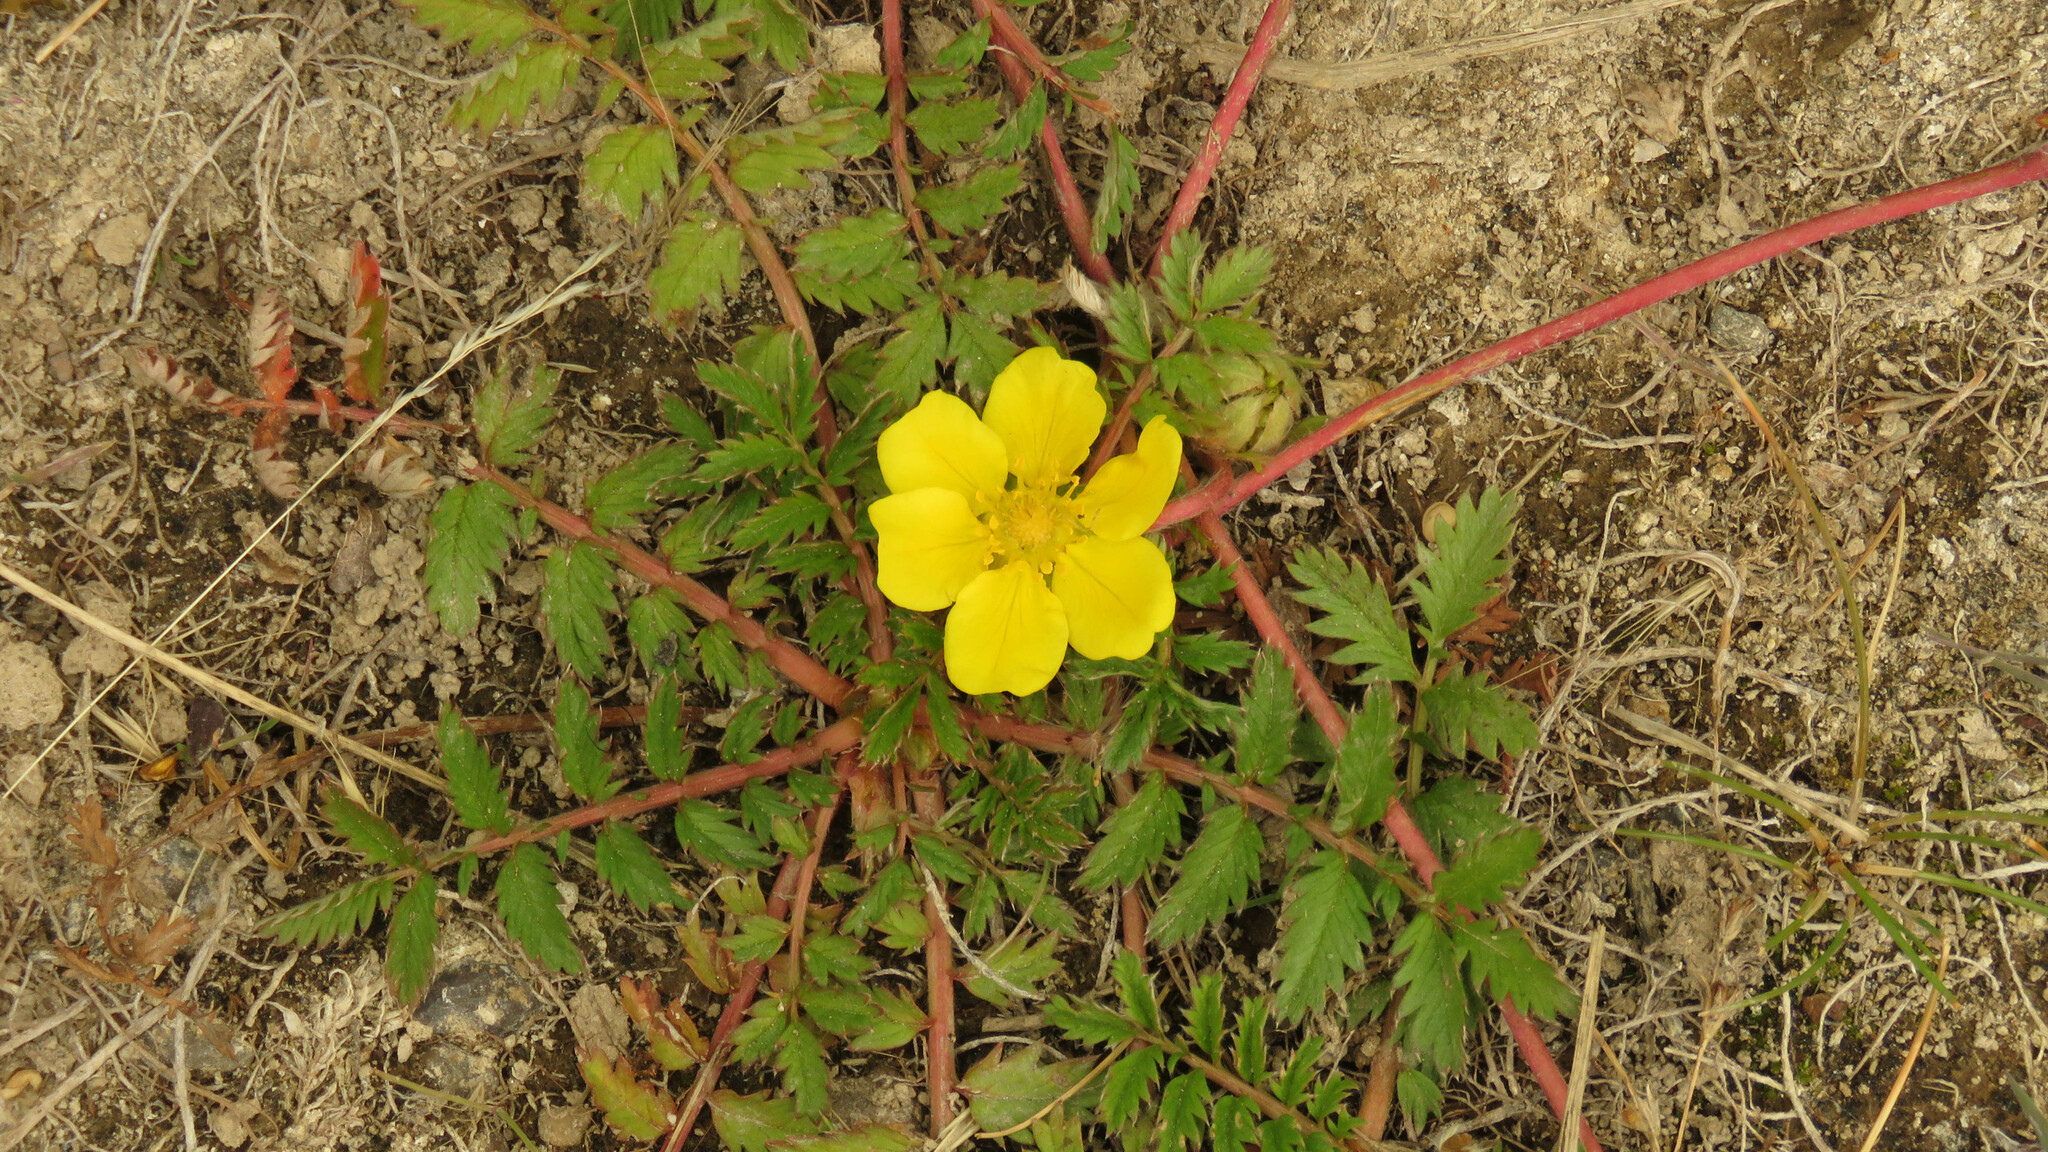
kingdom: Plantae
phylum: Tracheophyta
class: Magnoliopsida
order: Rosales
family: Rosaceae
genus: Argentina
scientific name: Argentina anserina
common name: Common silverweed
